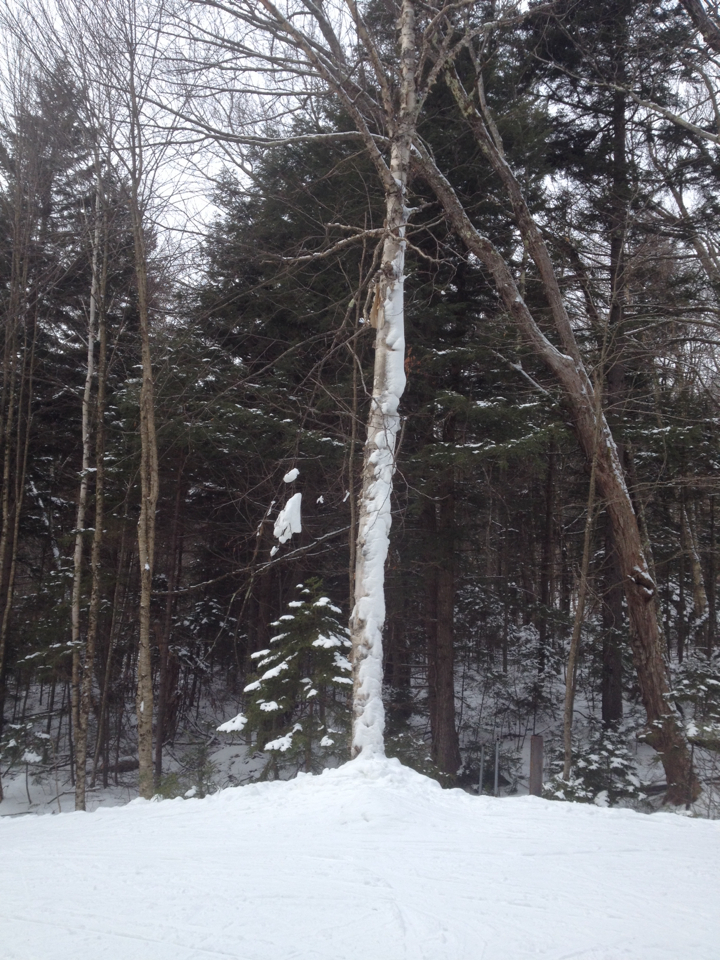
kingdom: Plantae
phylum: Tracheophyta
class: Magnoliopsida
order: Fagales
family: Betulaceae
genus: Betula
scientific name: Betula papyrifera
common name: Paper birch
